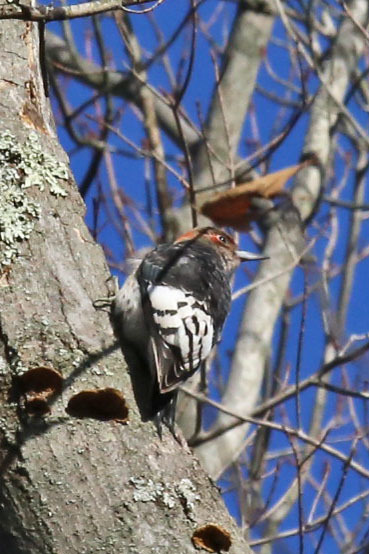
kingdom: Animalia
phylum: Chordata
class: Aves
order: Piciformes
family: Picidae
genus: Melanerpes
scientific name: Melanerpes erythrocephalus
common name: Red-headed woodpecker
